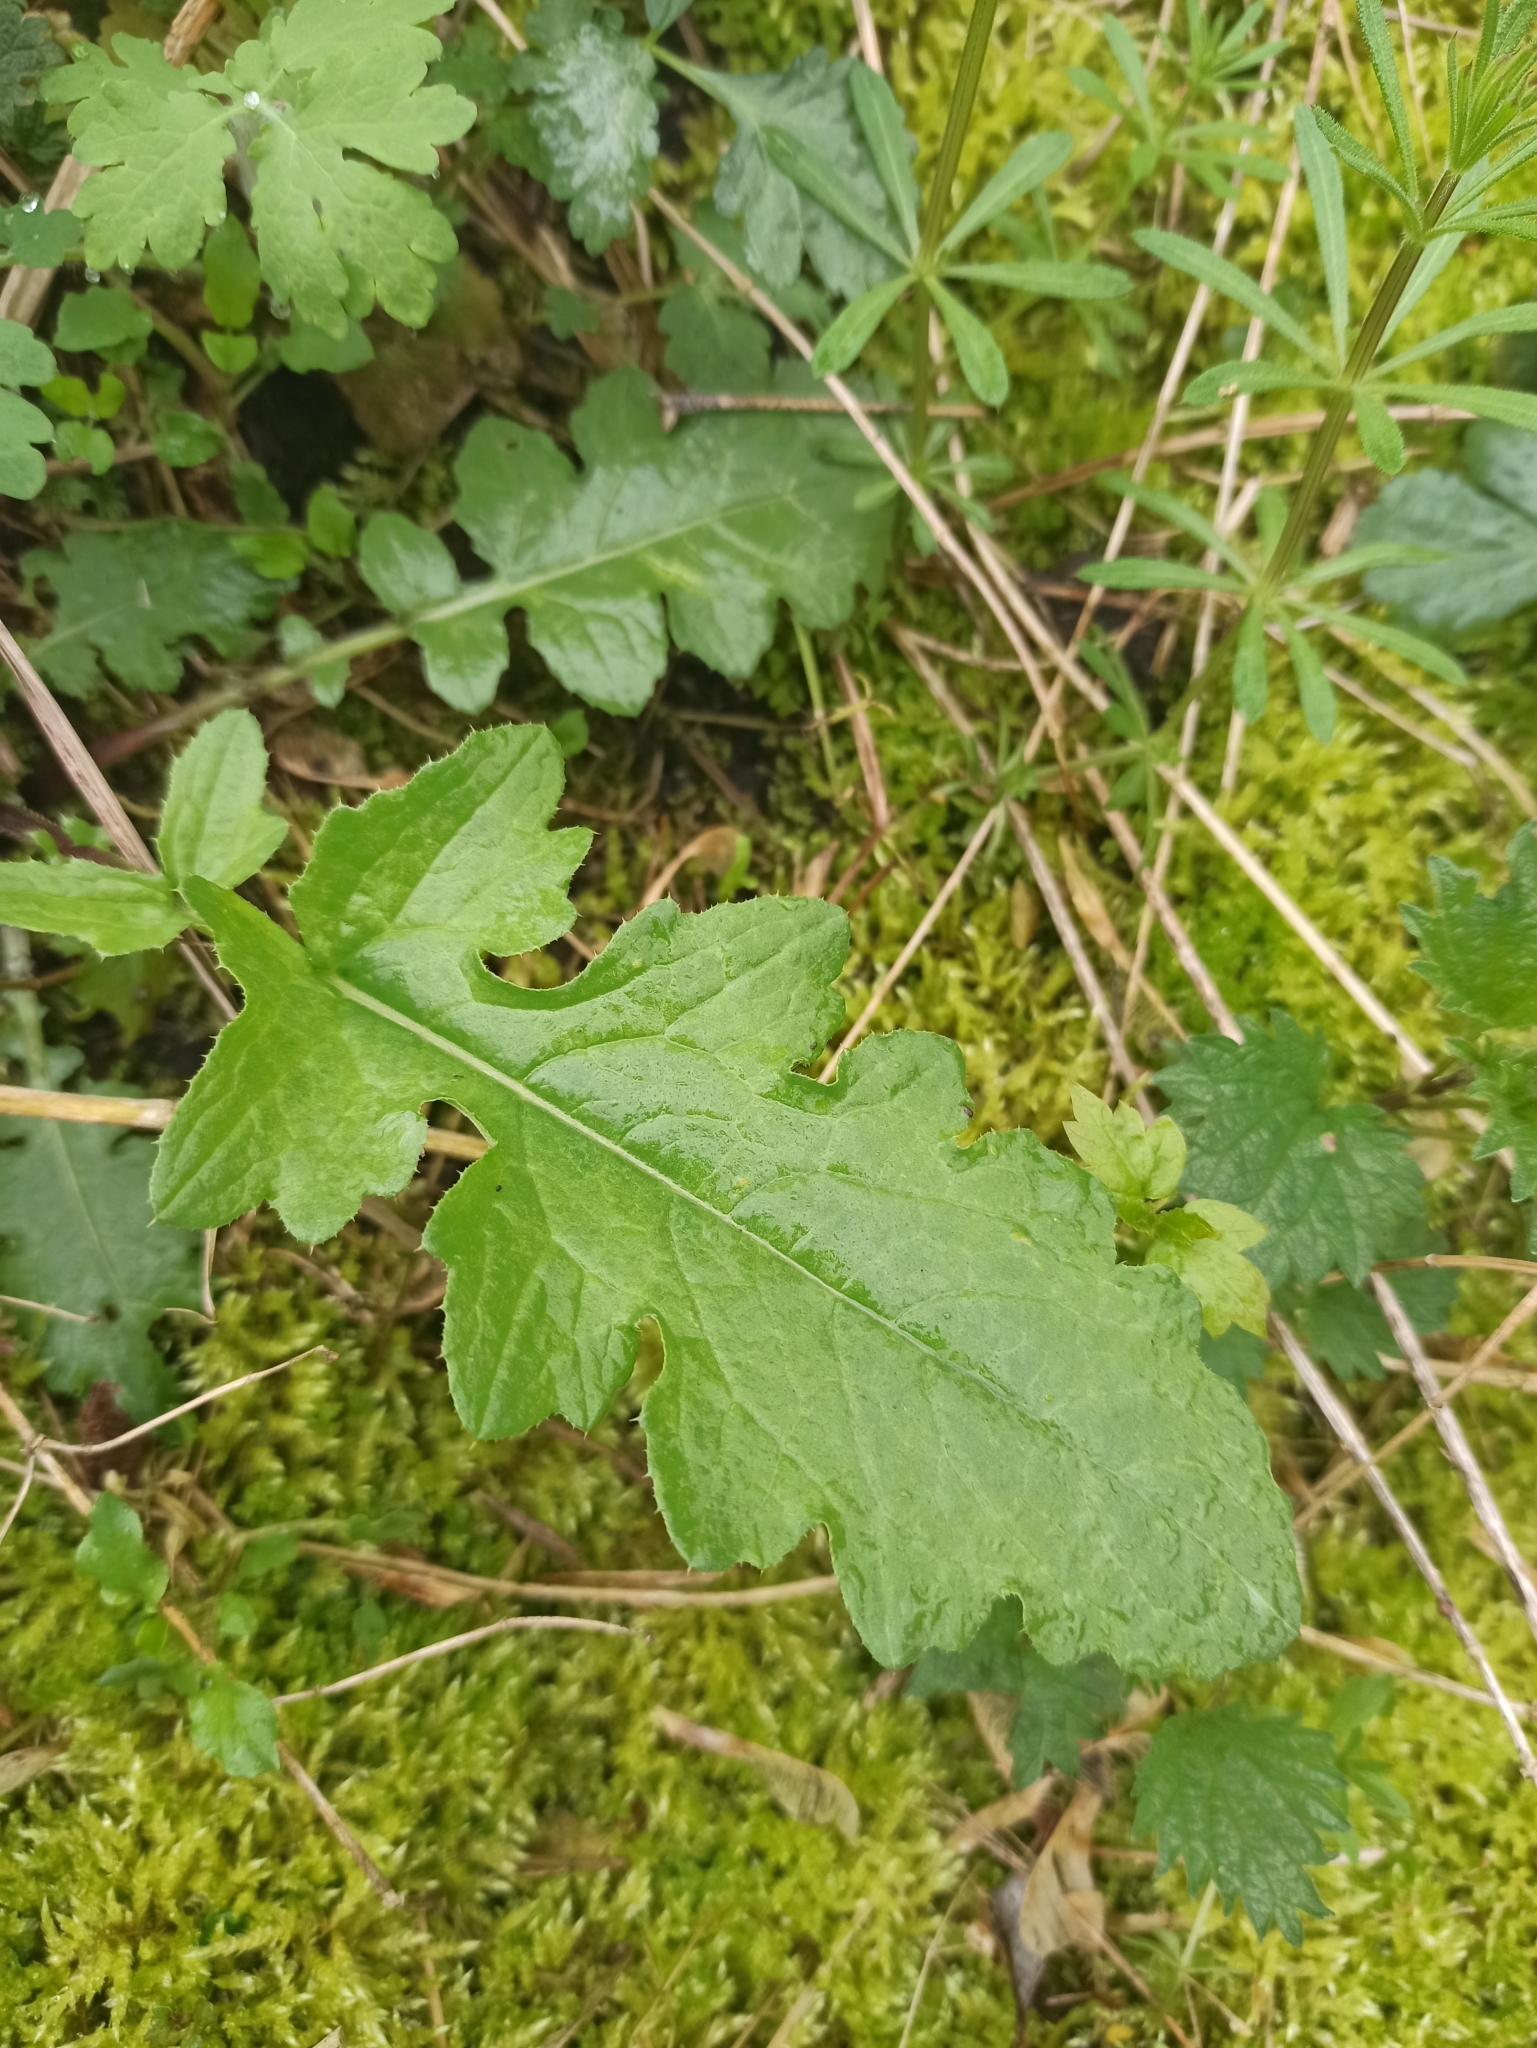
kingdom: Plantae
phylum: Tracheophyta
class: Magnoliopsida
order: Asterales
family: Asteraceae
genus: Carduus
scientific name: Carduus crispus
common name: Welted thistle
